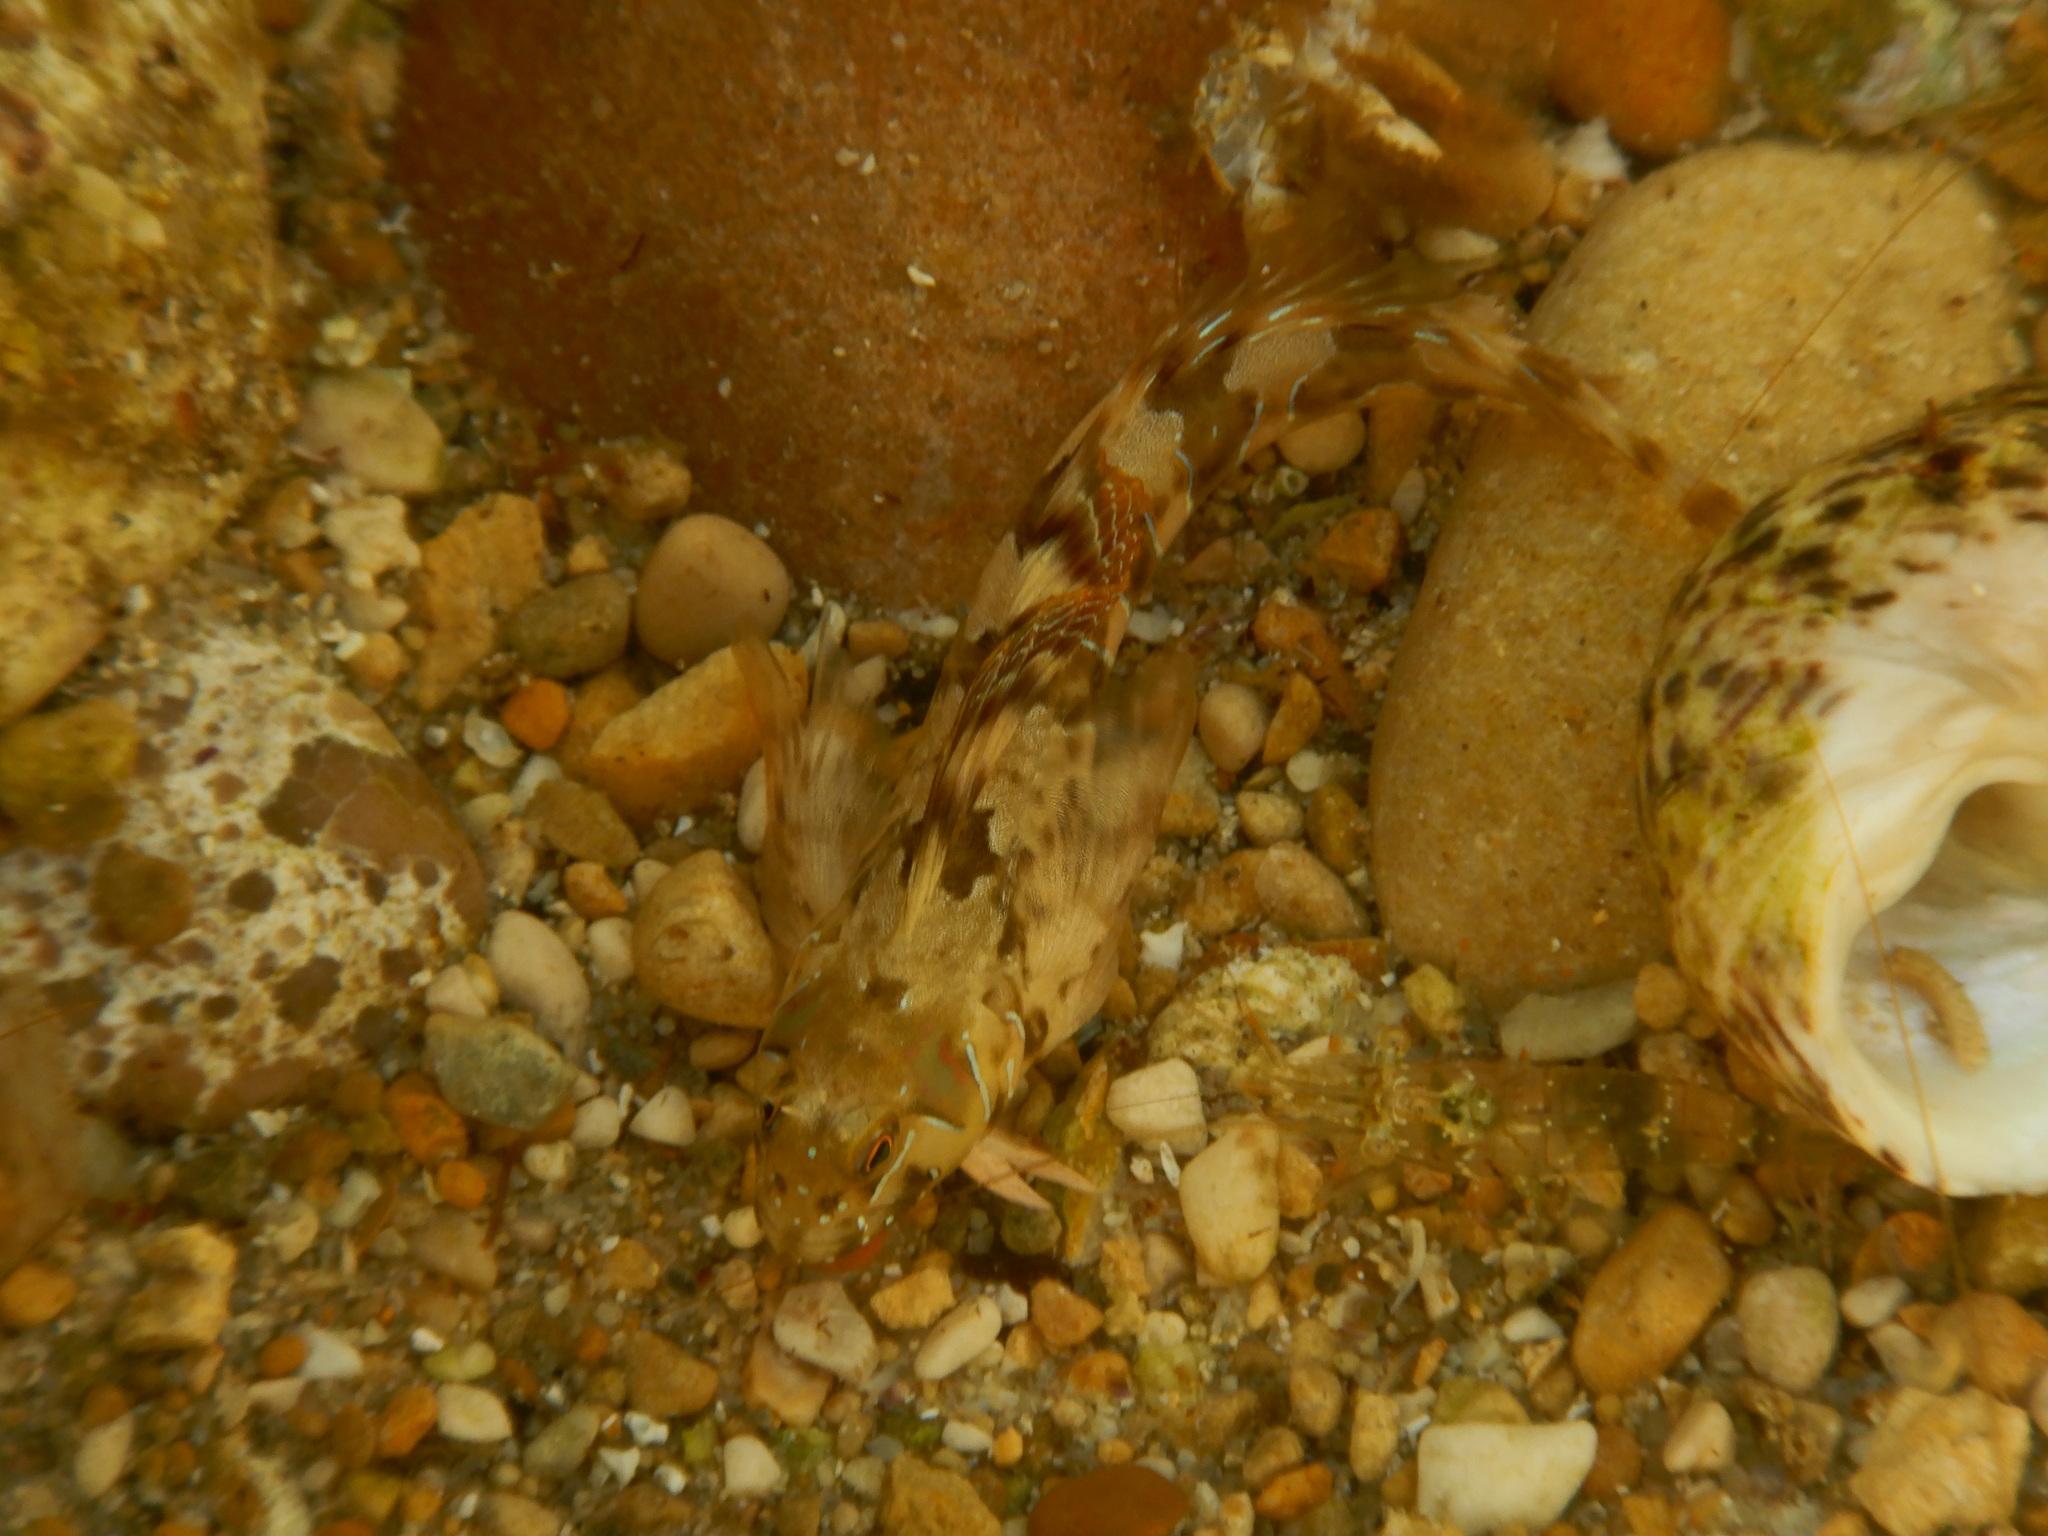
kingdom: Animalia
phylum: Chordata
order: Perciformes
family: Blenniidae
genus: Aidablennius
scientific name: Aidablennius sphynx
